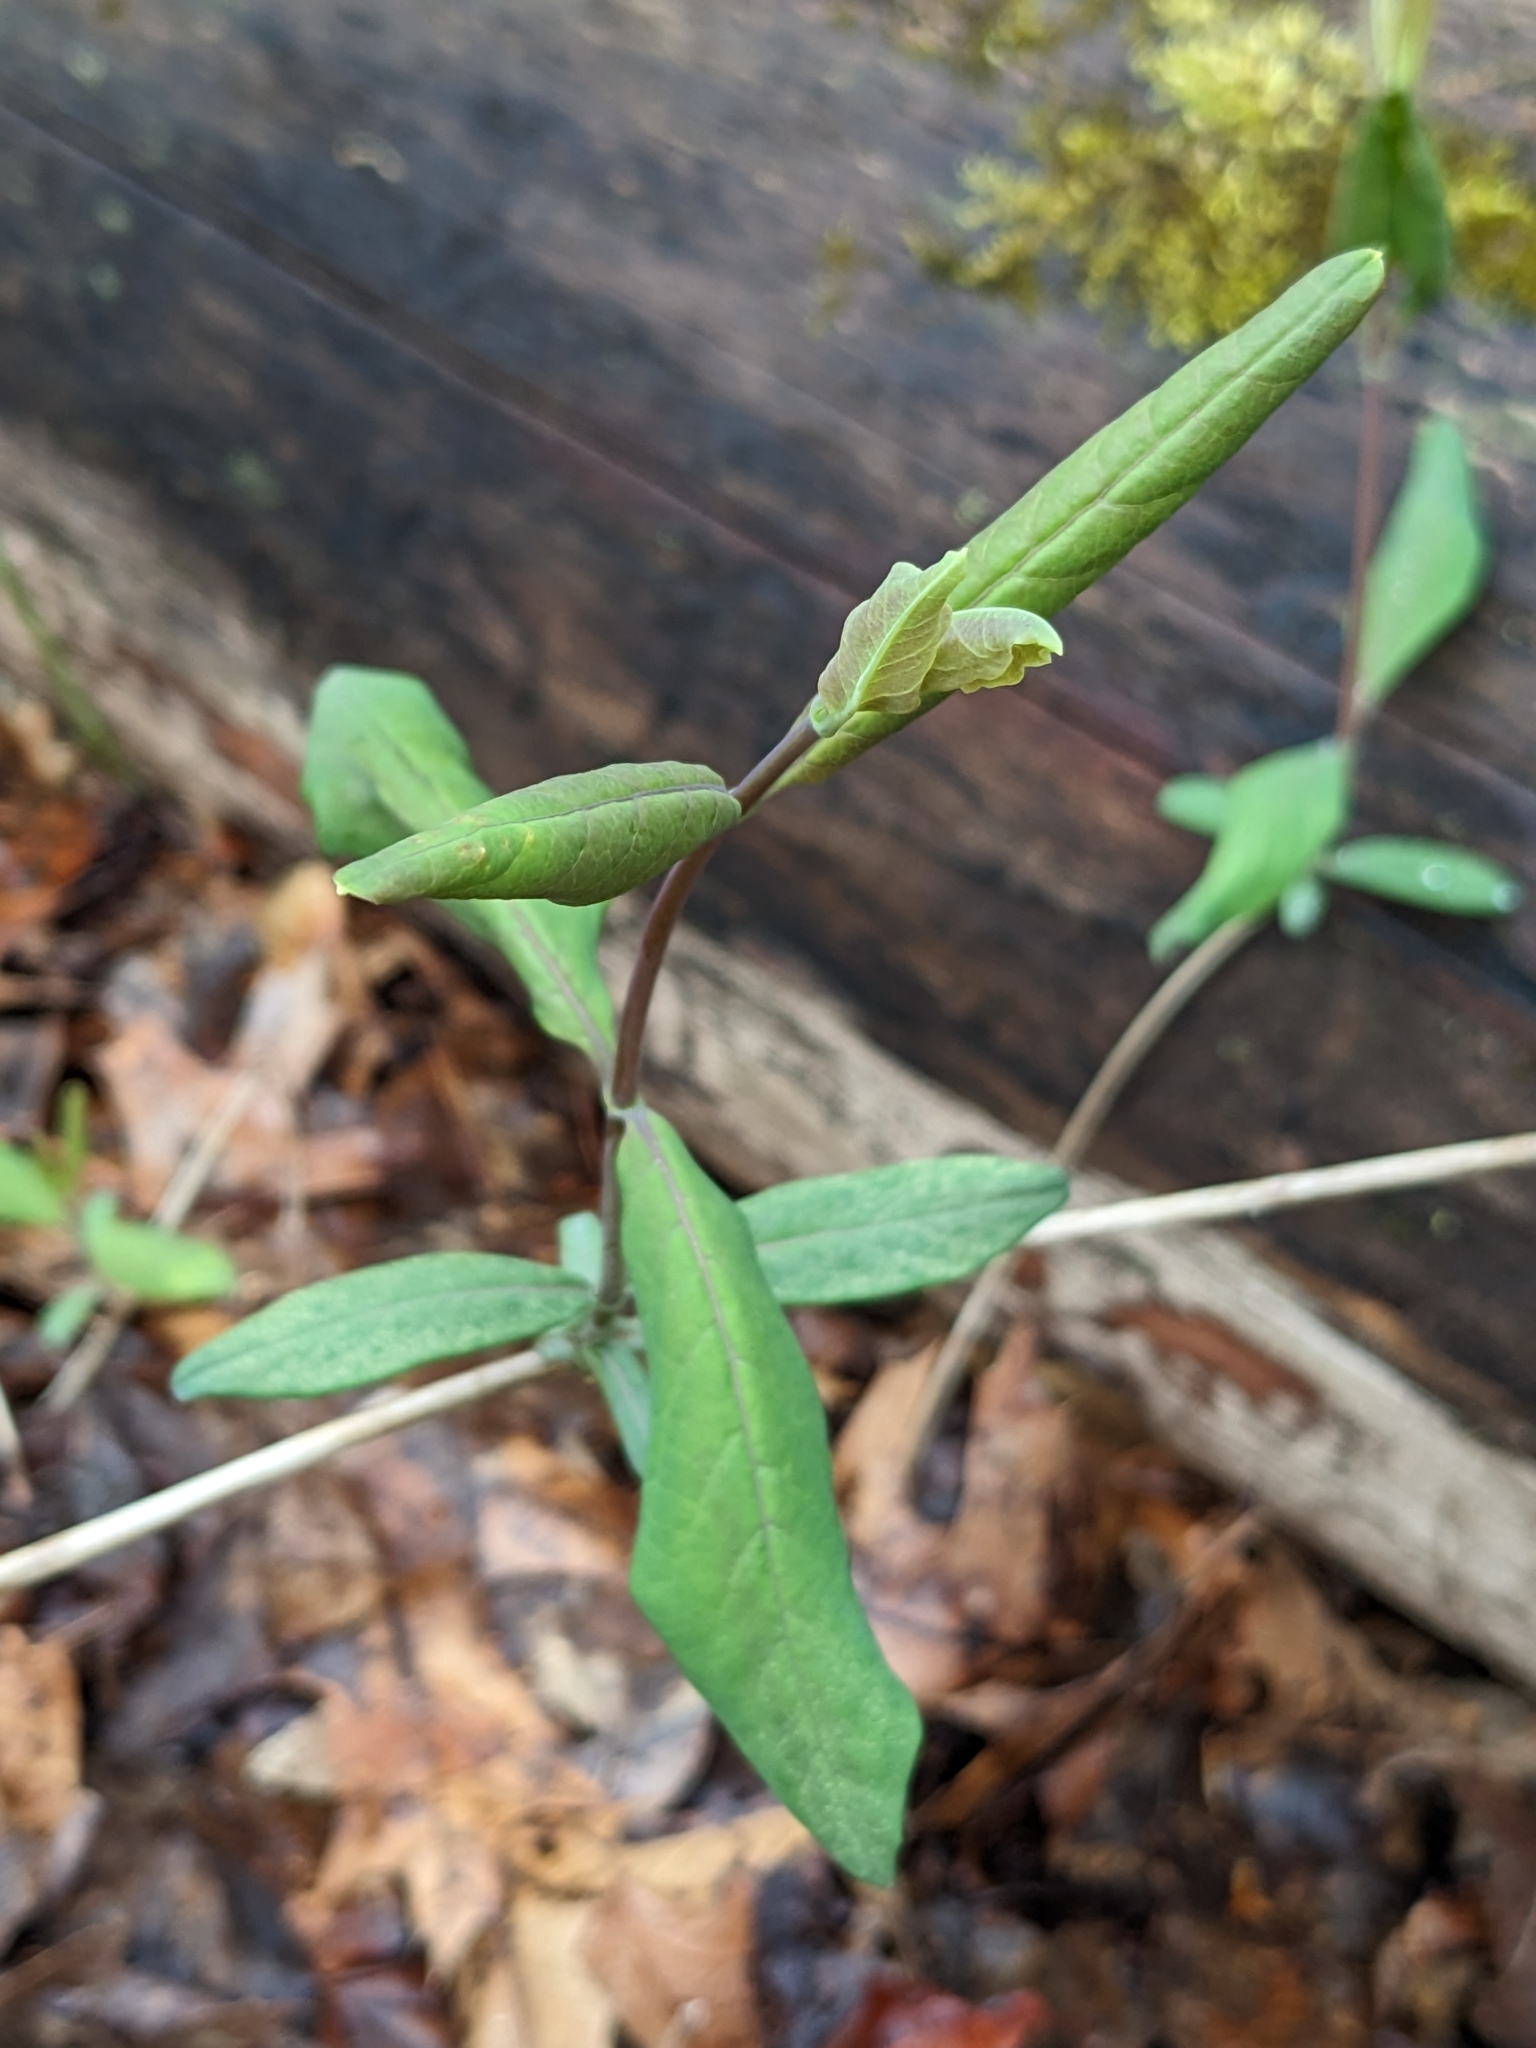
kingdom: Plantae
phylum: Tracheophyta
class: Magnoliopsida
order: Dipsacales
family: Caprifoliaceae
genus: Lonicera
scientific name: Lonicera dioica
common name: Limber honeysuckle
